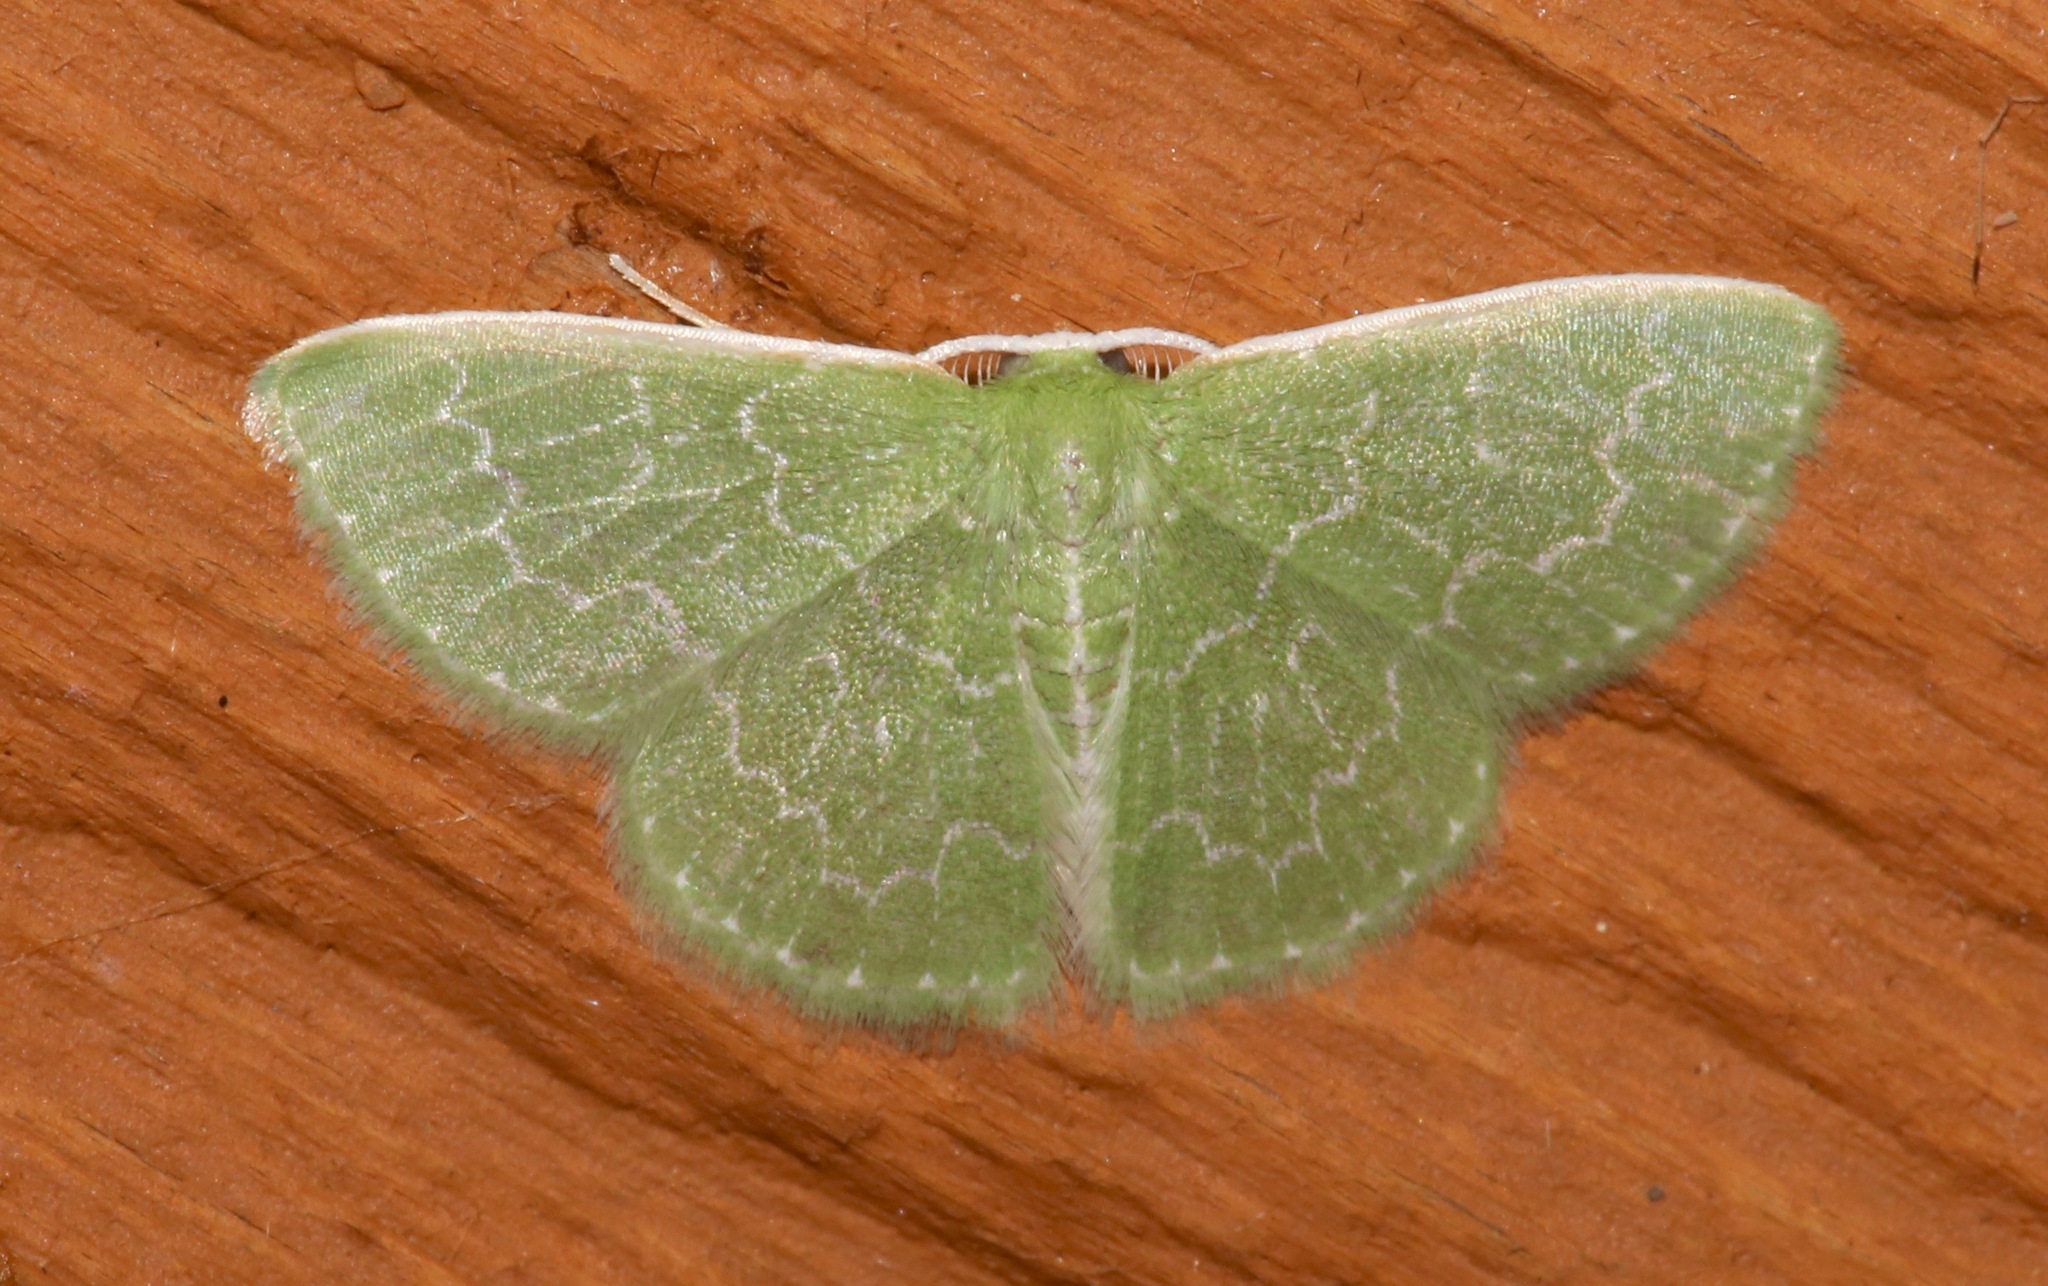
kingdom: Animalia
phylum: Arthropoda
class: Insecta
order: Lepidoptera
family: Geometridae
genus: Synchlora
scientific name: Synchlora frondaria
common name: Southern emerald
